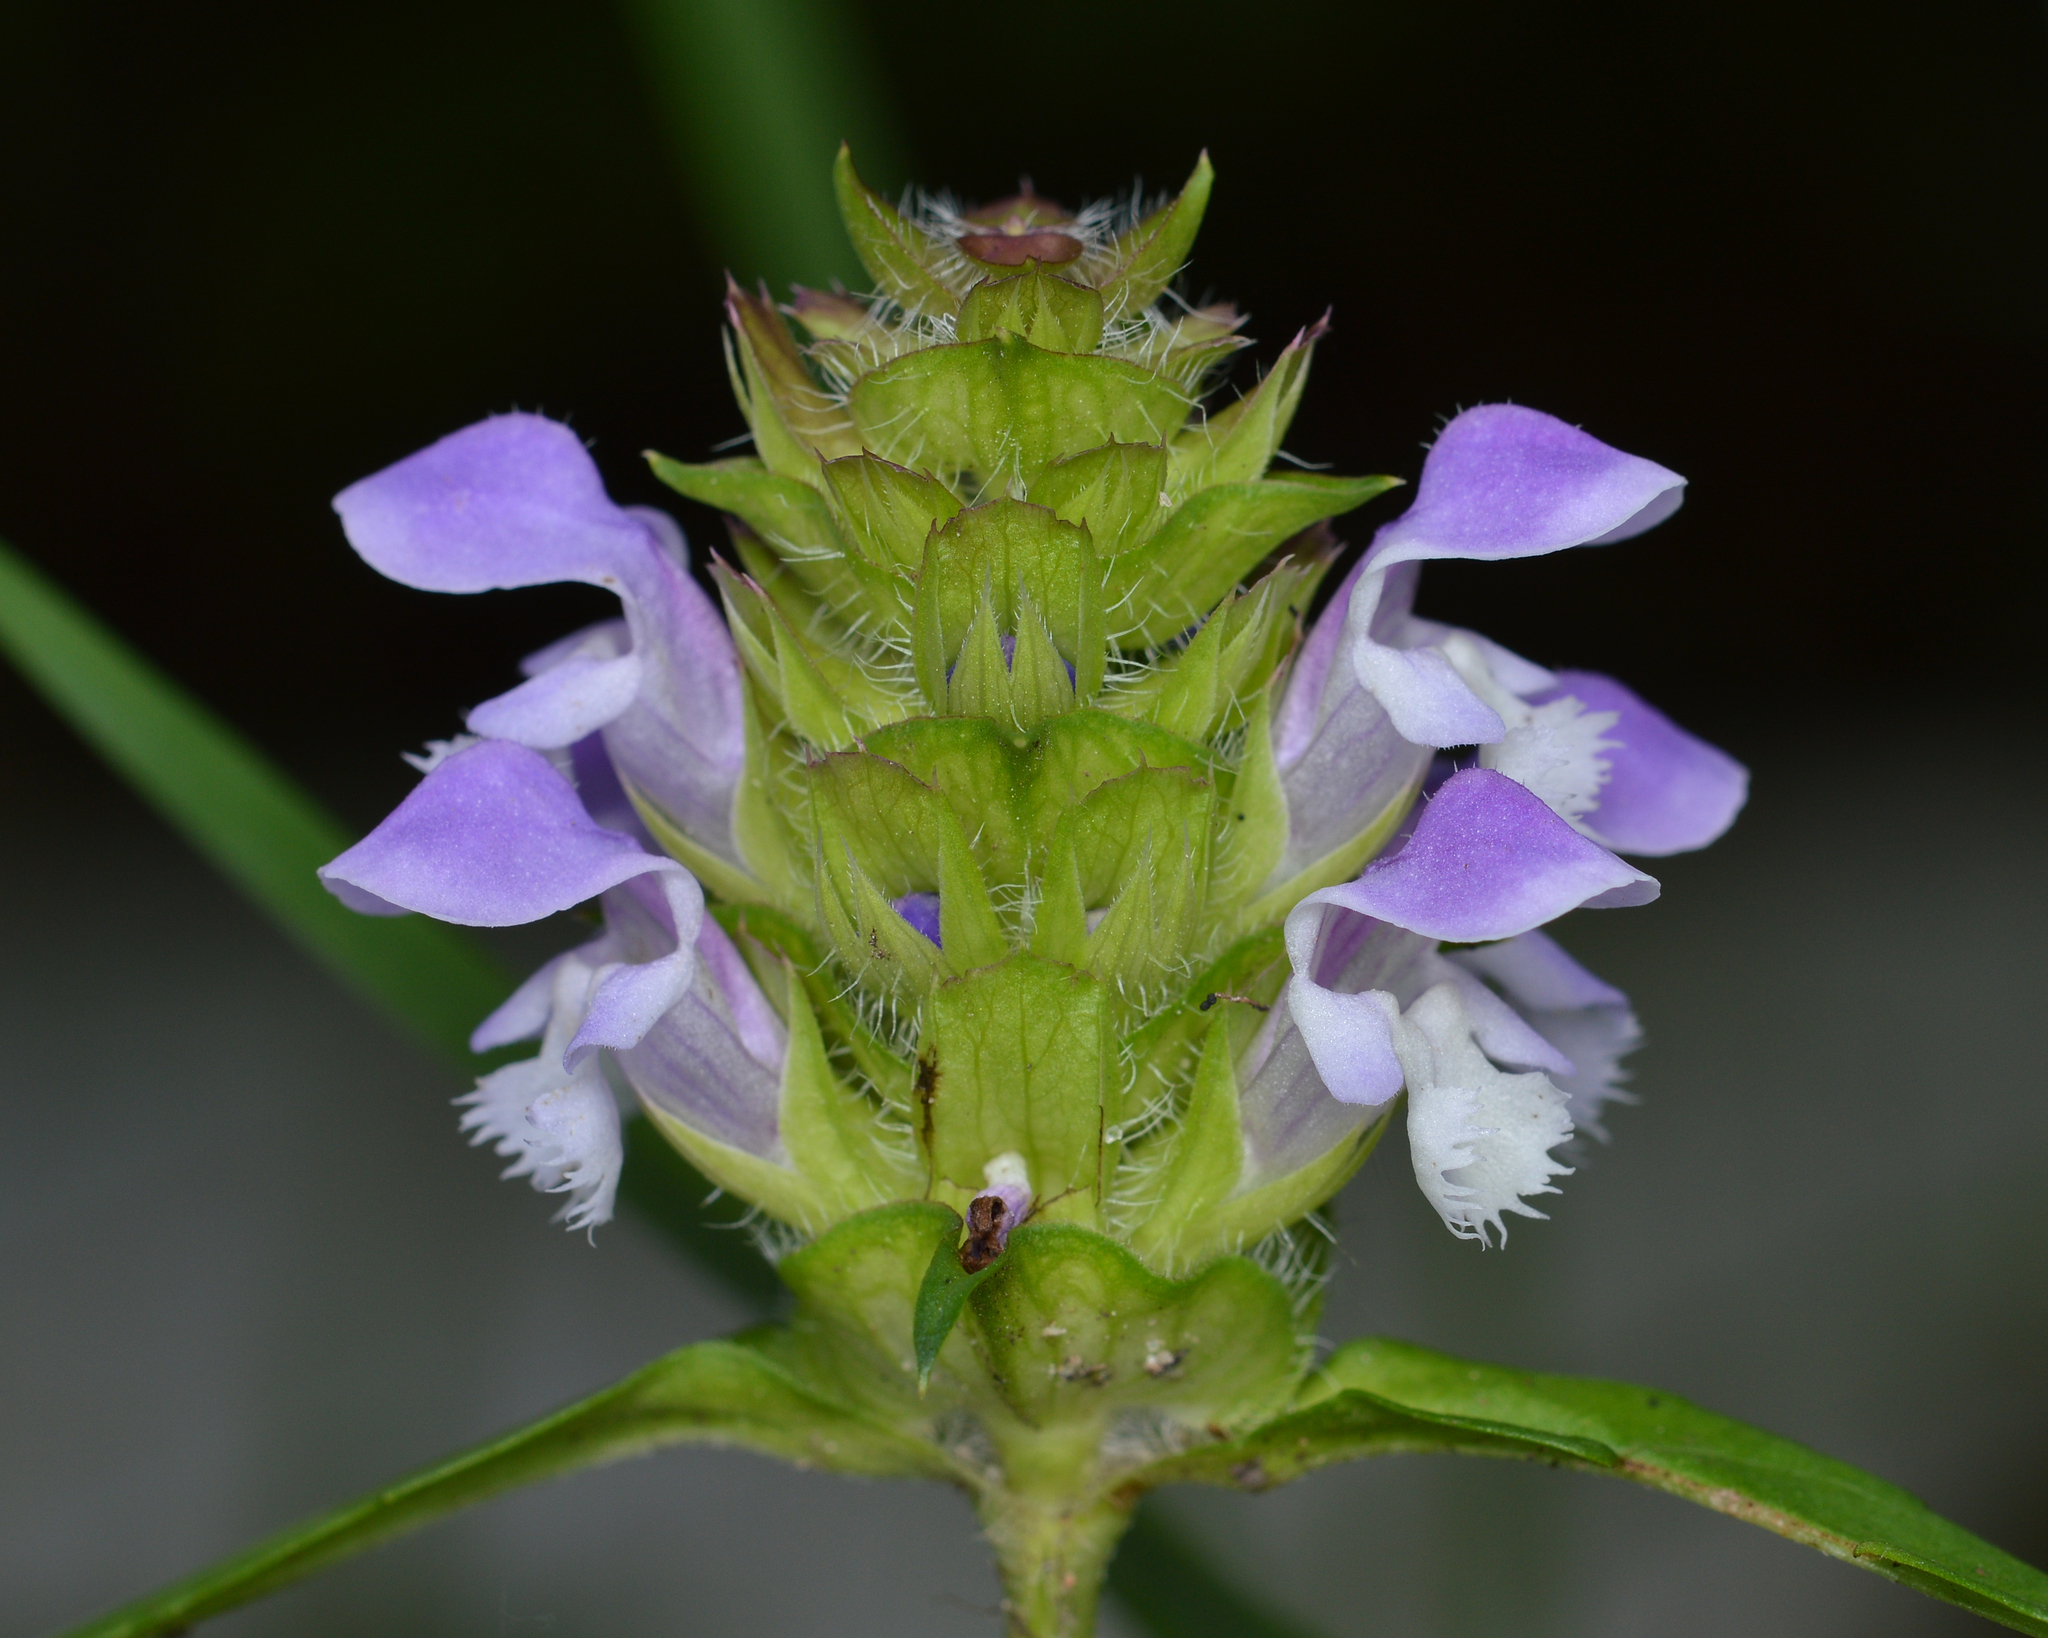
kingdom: Plantae
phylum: Tracheophyta
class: Magnoliopsida
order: Lamiales
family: Lamiaceae
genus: Prunella
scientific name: Prunella vulgaris
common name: Heal-all
